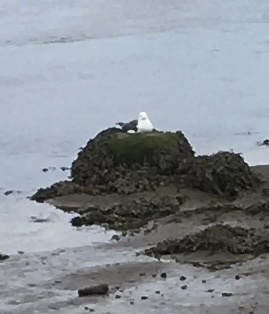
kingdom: Animalia
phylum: Chordata
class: Aves
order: Charadriiformes
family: Laridae
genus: Larus
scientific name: Larus marinus
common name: Great black-backed gull
